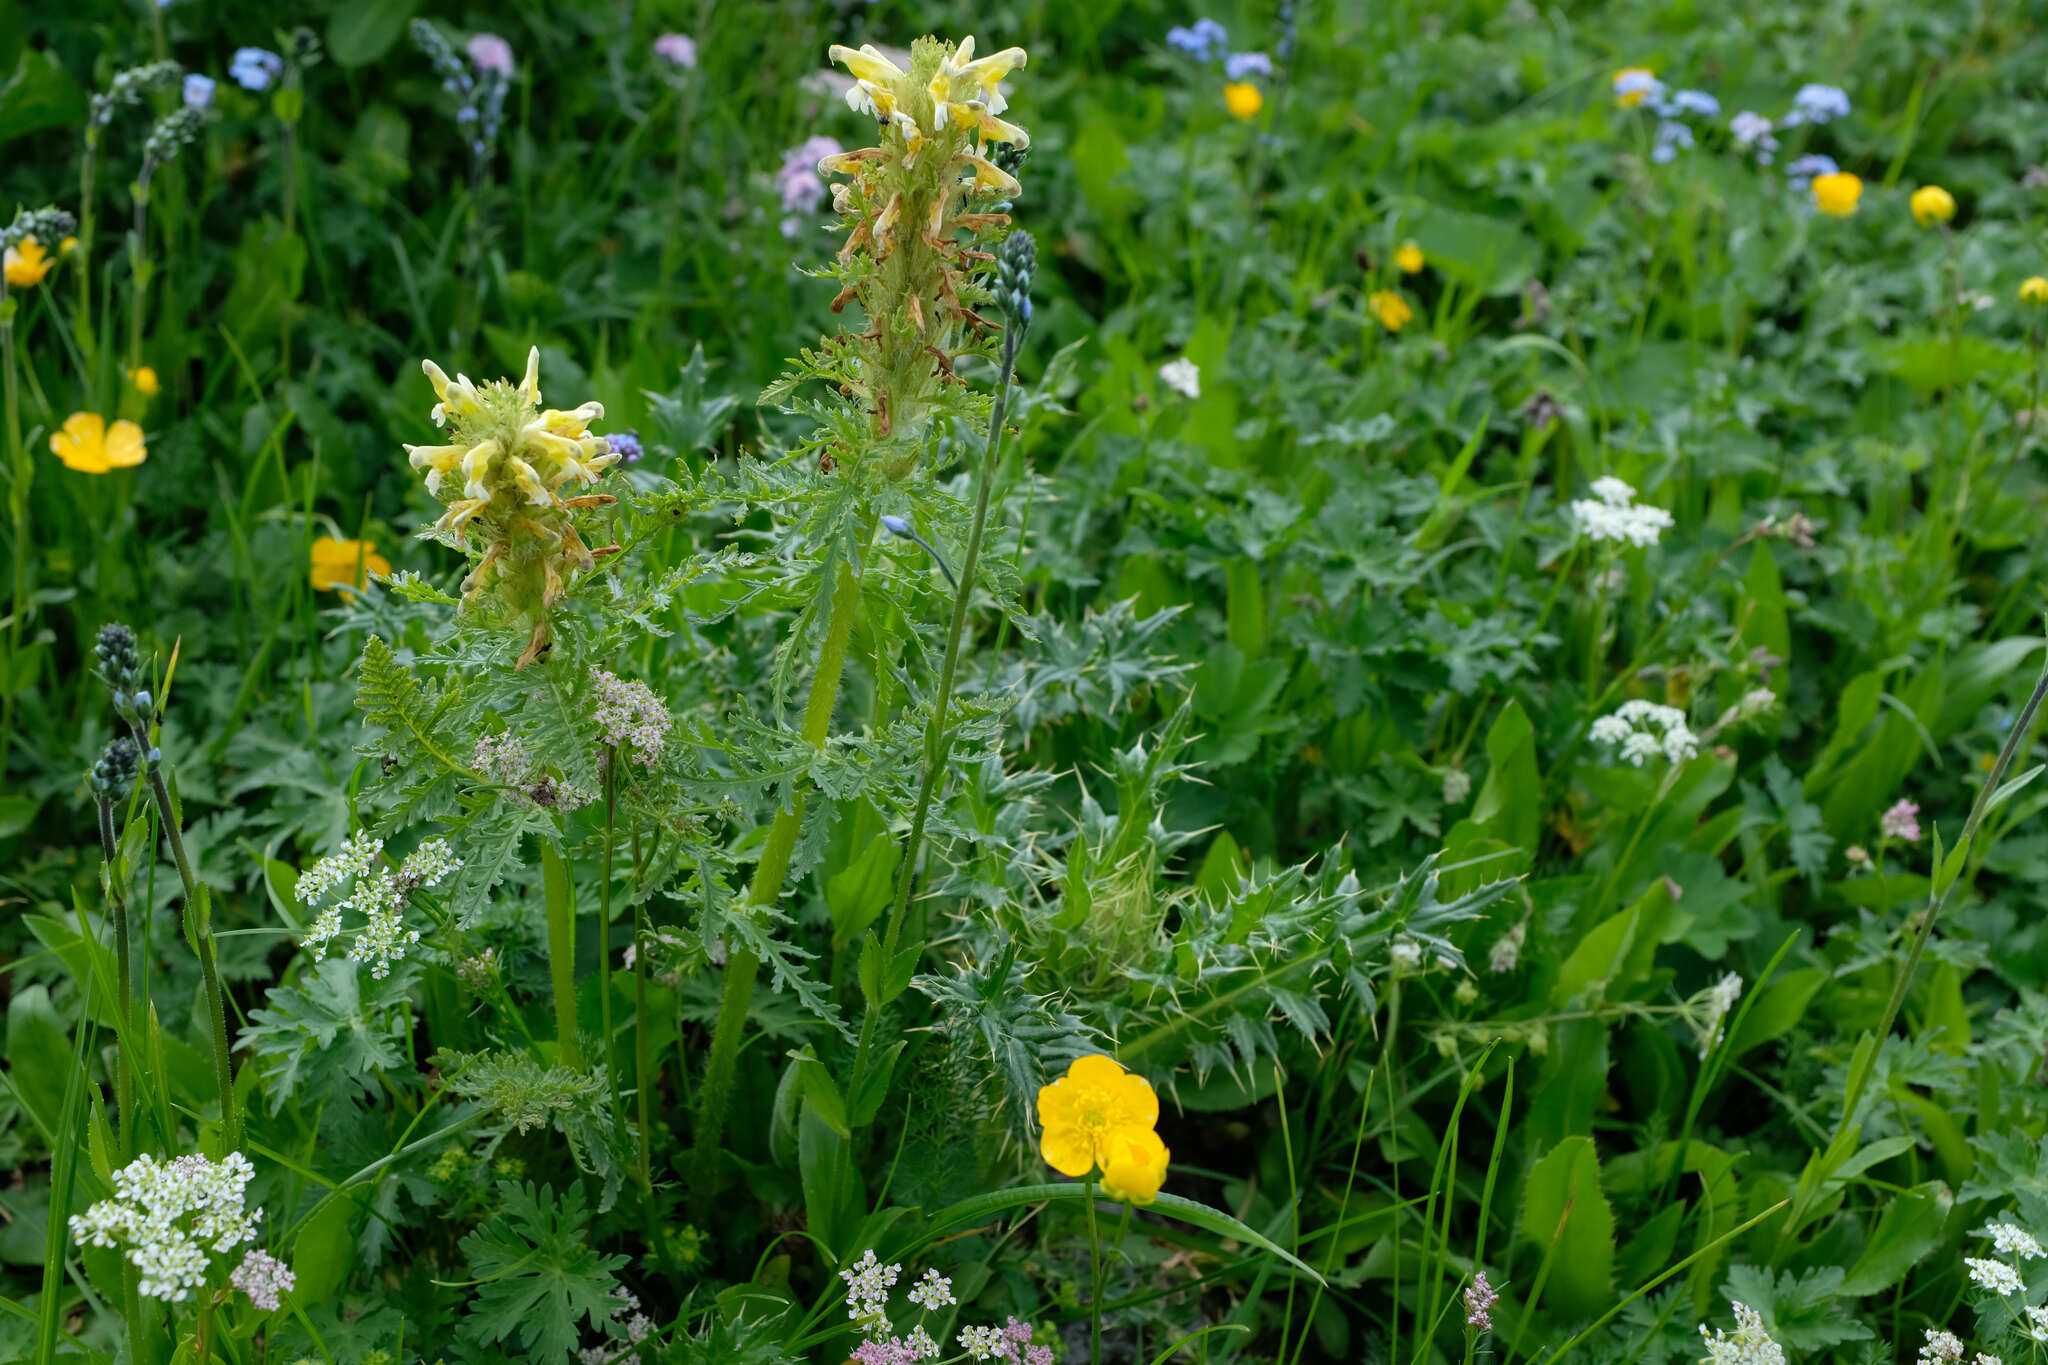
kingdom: Plantae
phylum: Tracheophyta
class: Magnoliopsida
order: Lamiales
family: Orobanchaceae
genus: Pedicularis
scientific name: Pedicularis condensata
